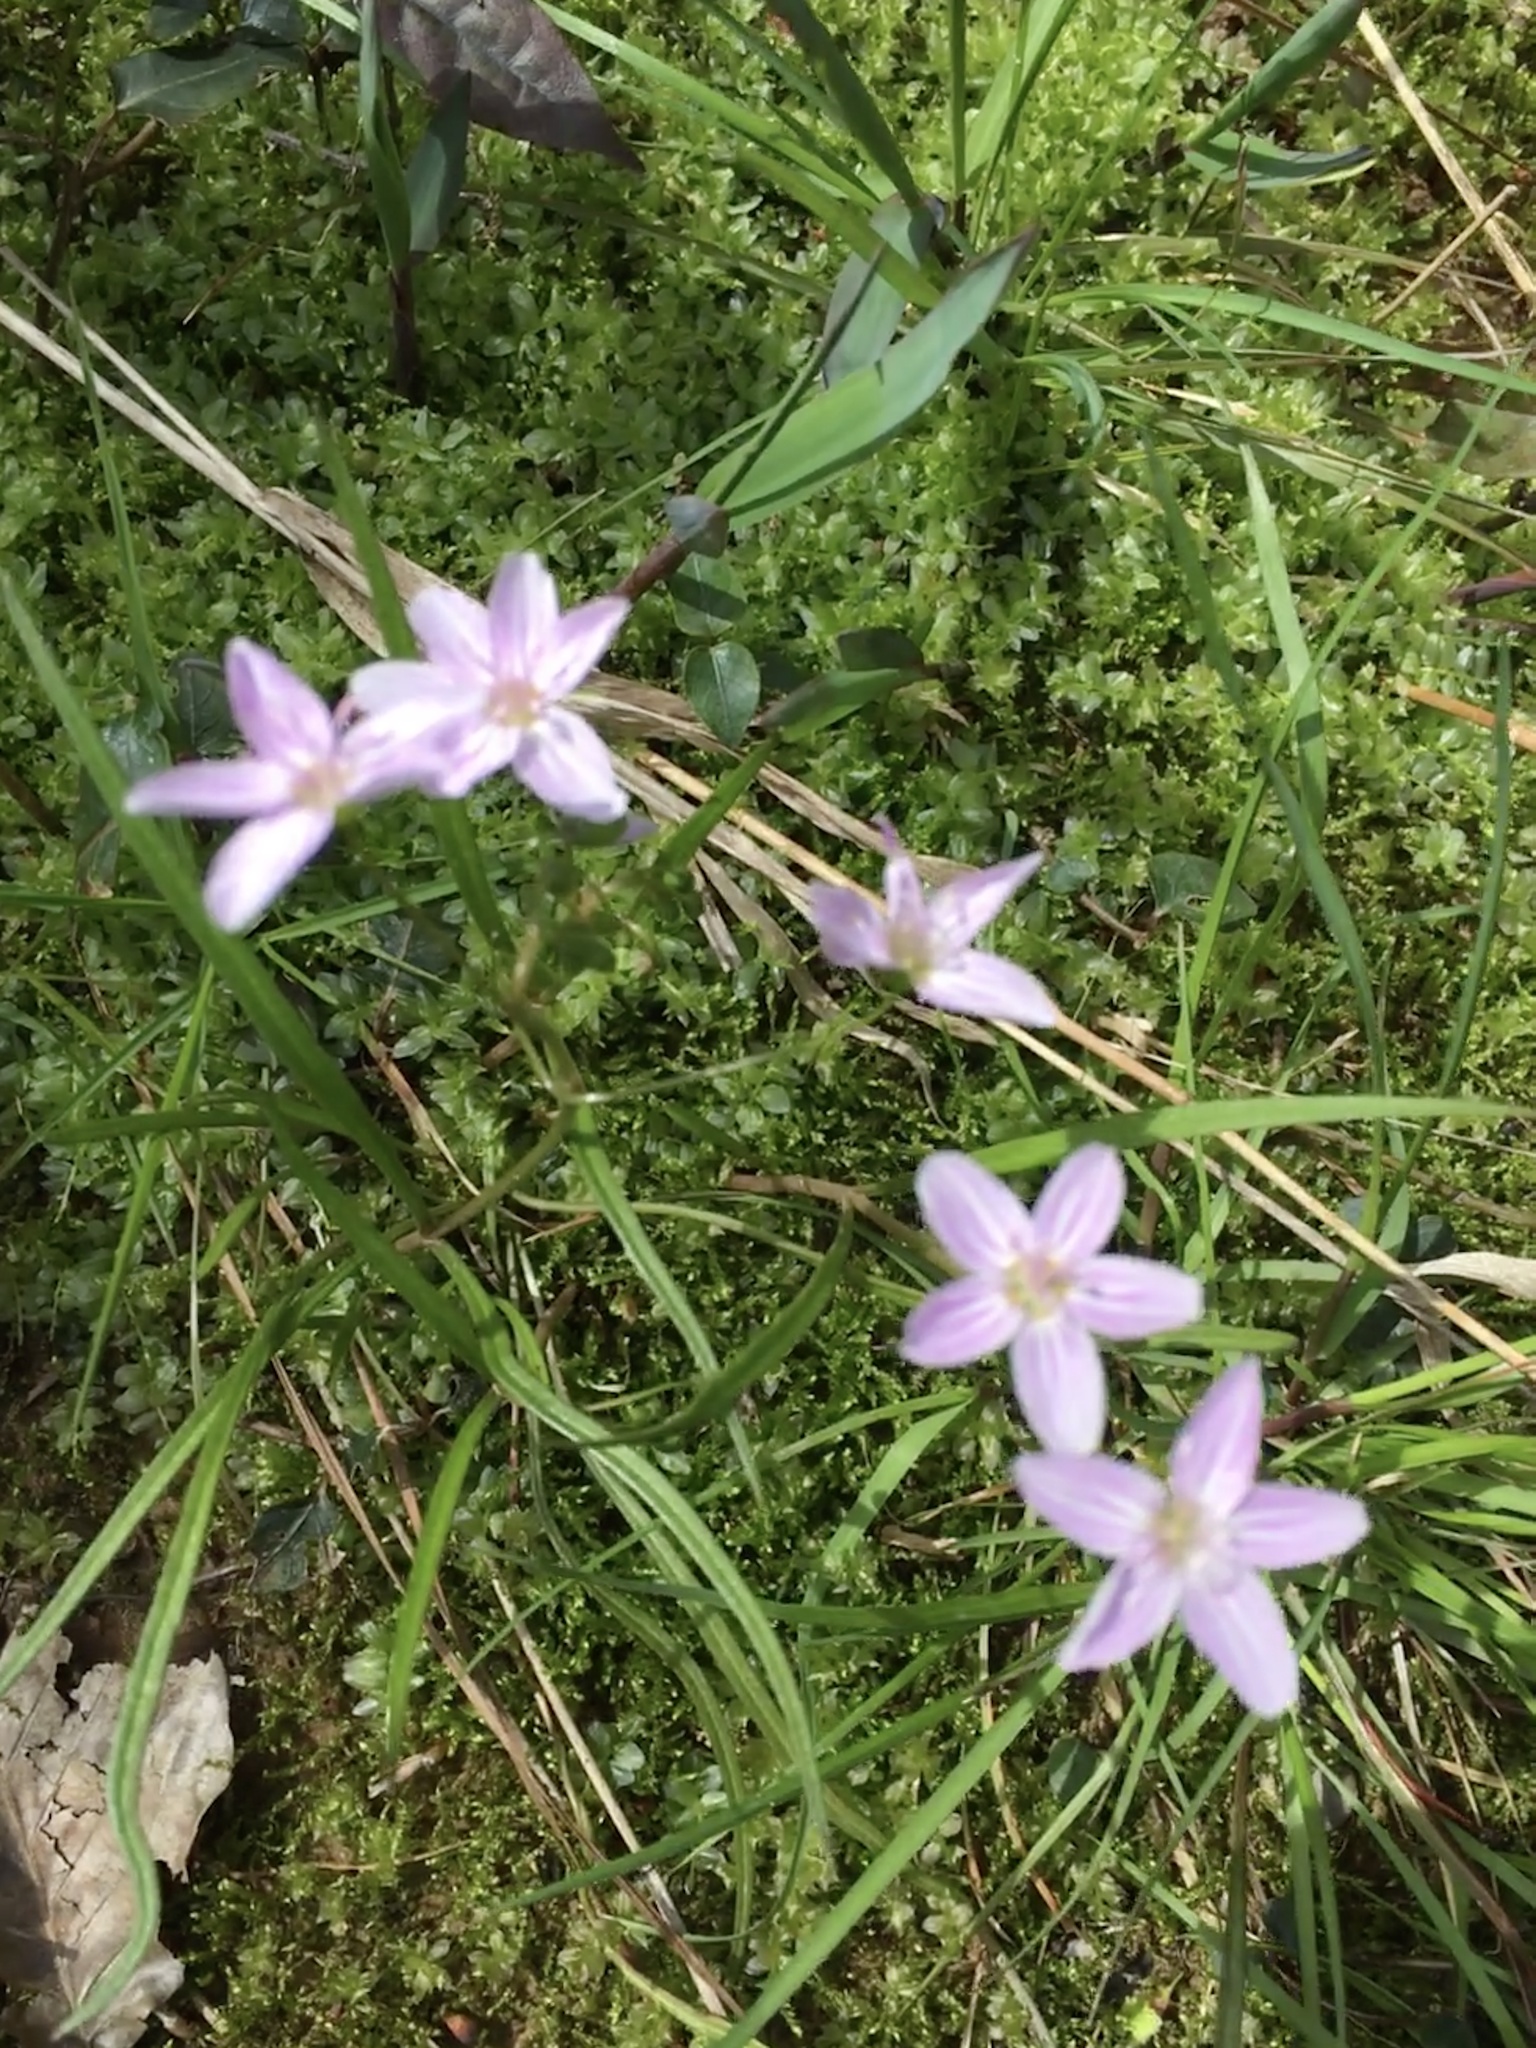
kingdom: Plantae
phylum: Tracheophyta
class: Magnoliopsida
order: Caryophyllales
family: Montiaceae
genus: Claytonia
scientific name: Claytonia virginica
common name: Virginia springbeauty
